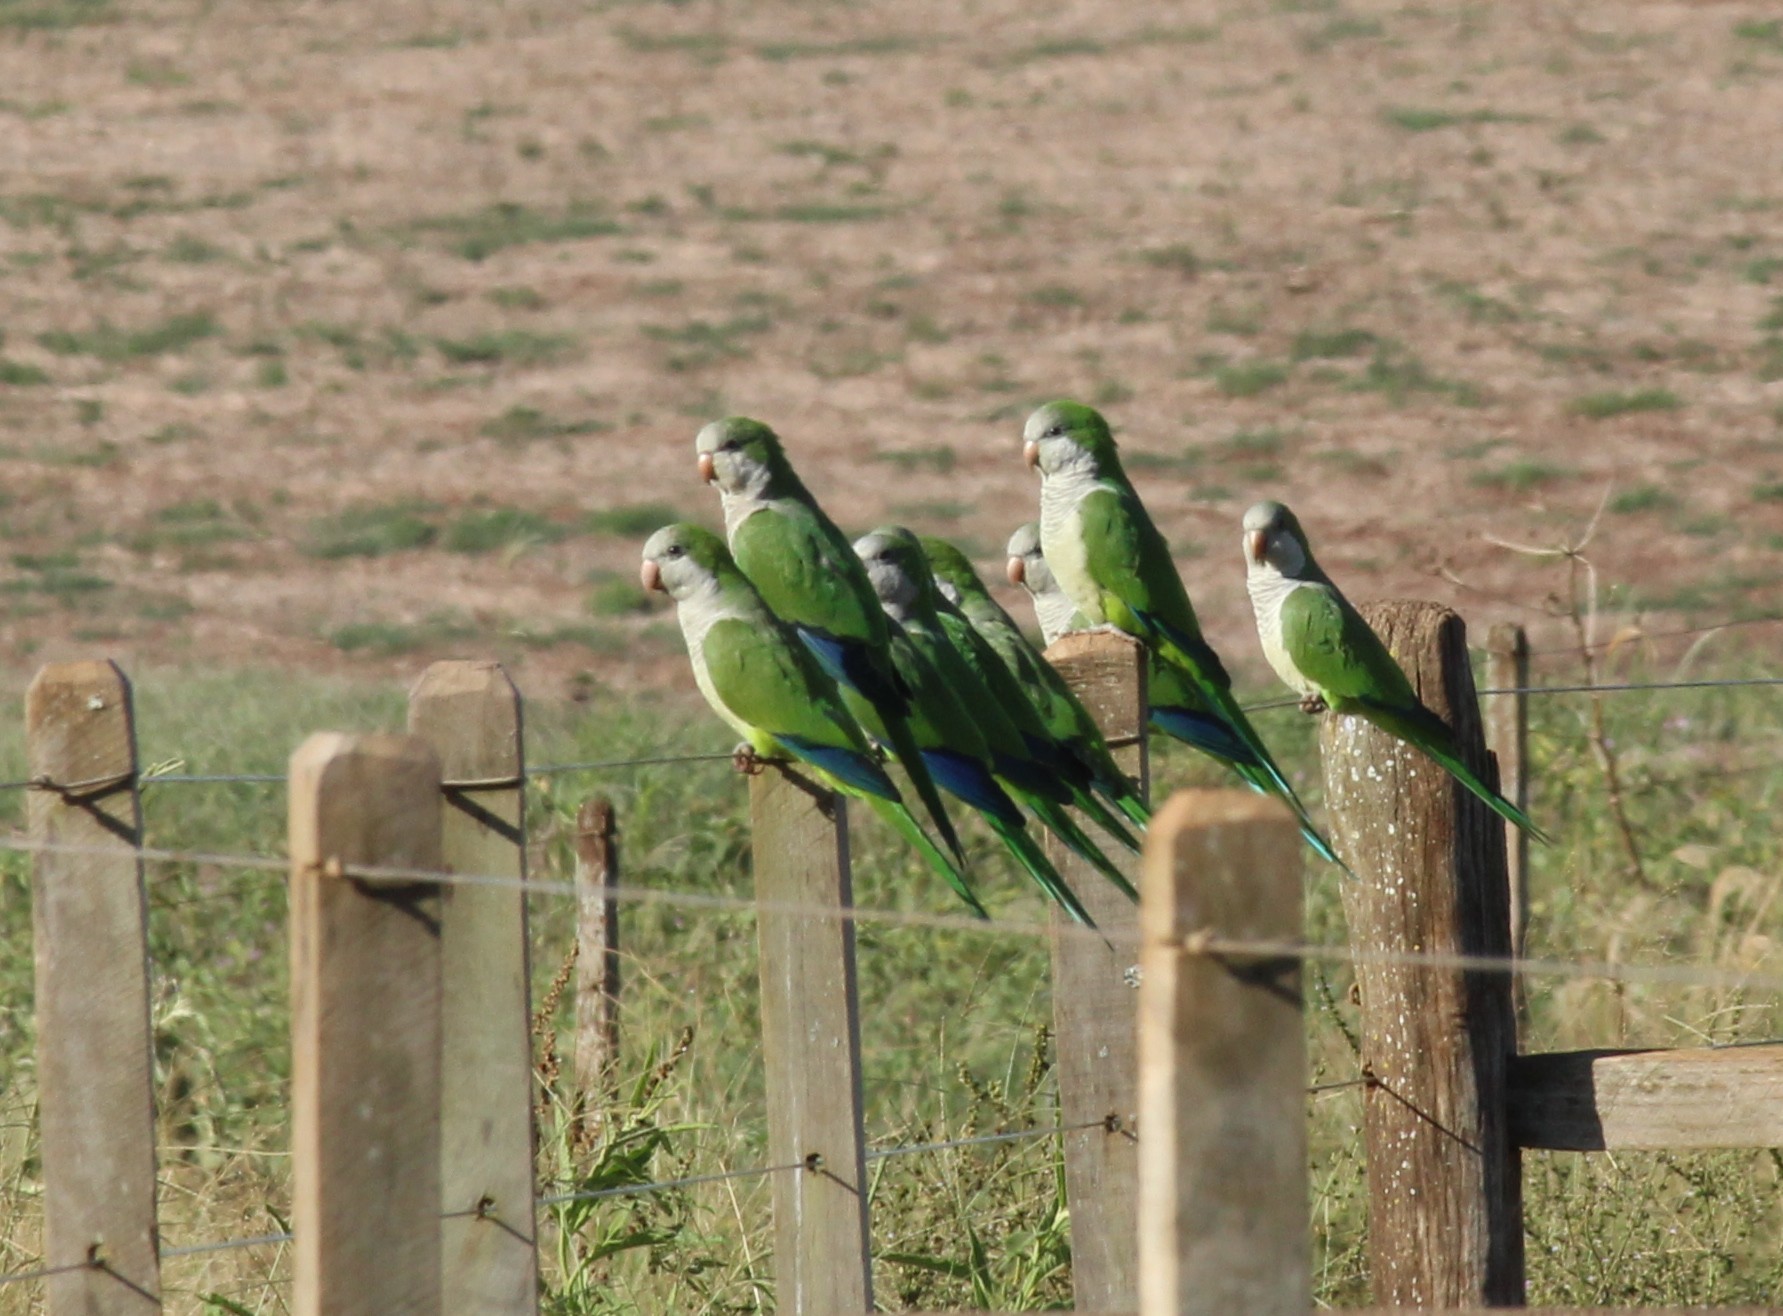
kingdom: Animalia
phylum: Chordata
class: Aves
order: Psittaciformes
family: Psittacidae
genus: Myiopsitta
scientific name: Myiopsitta monachus
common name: Monk parakeet
